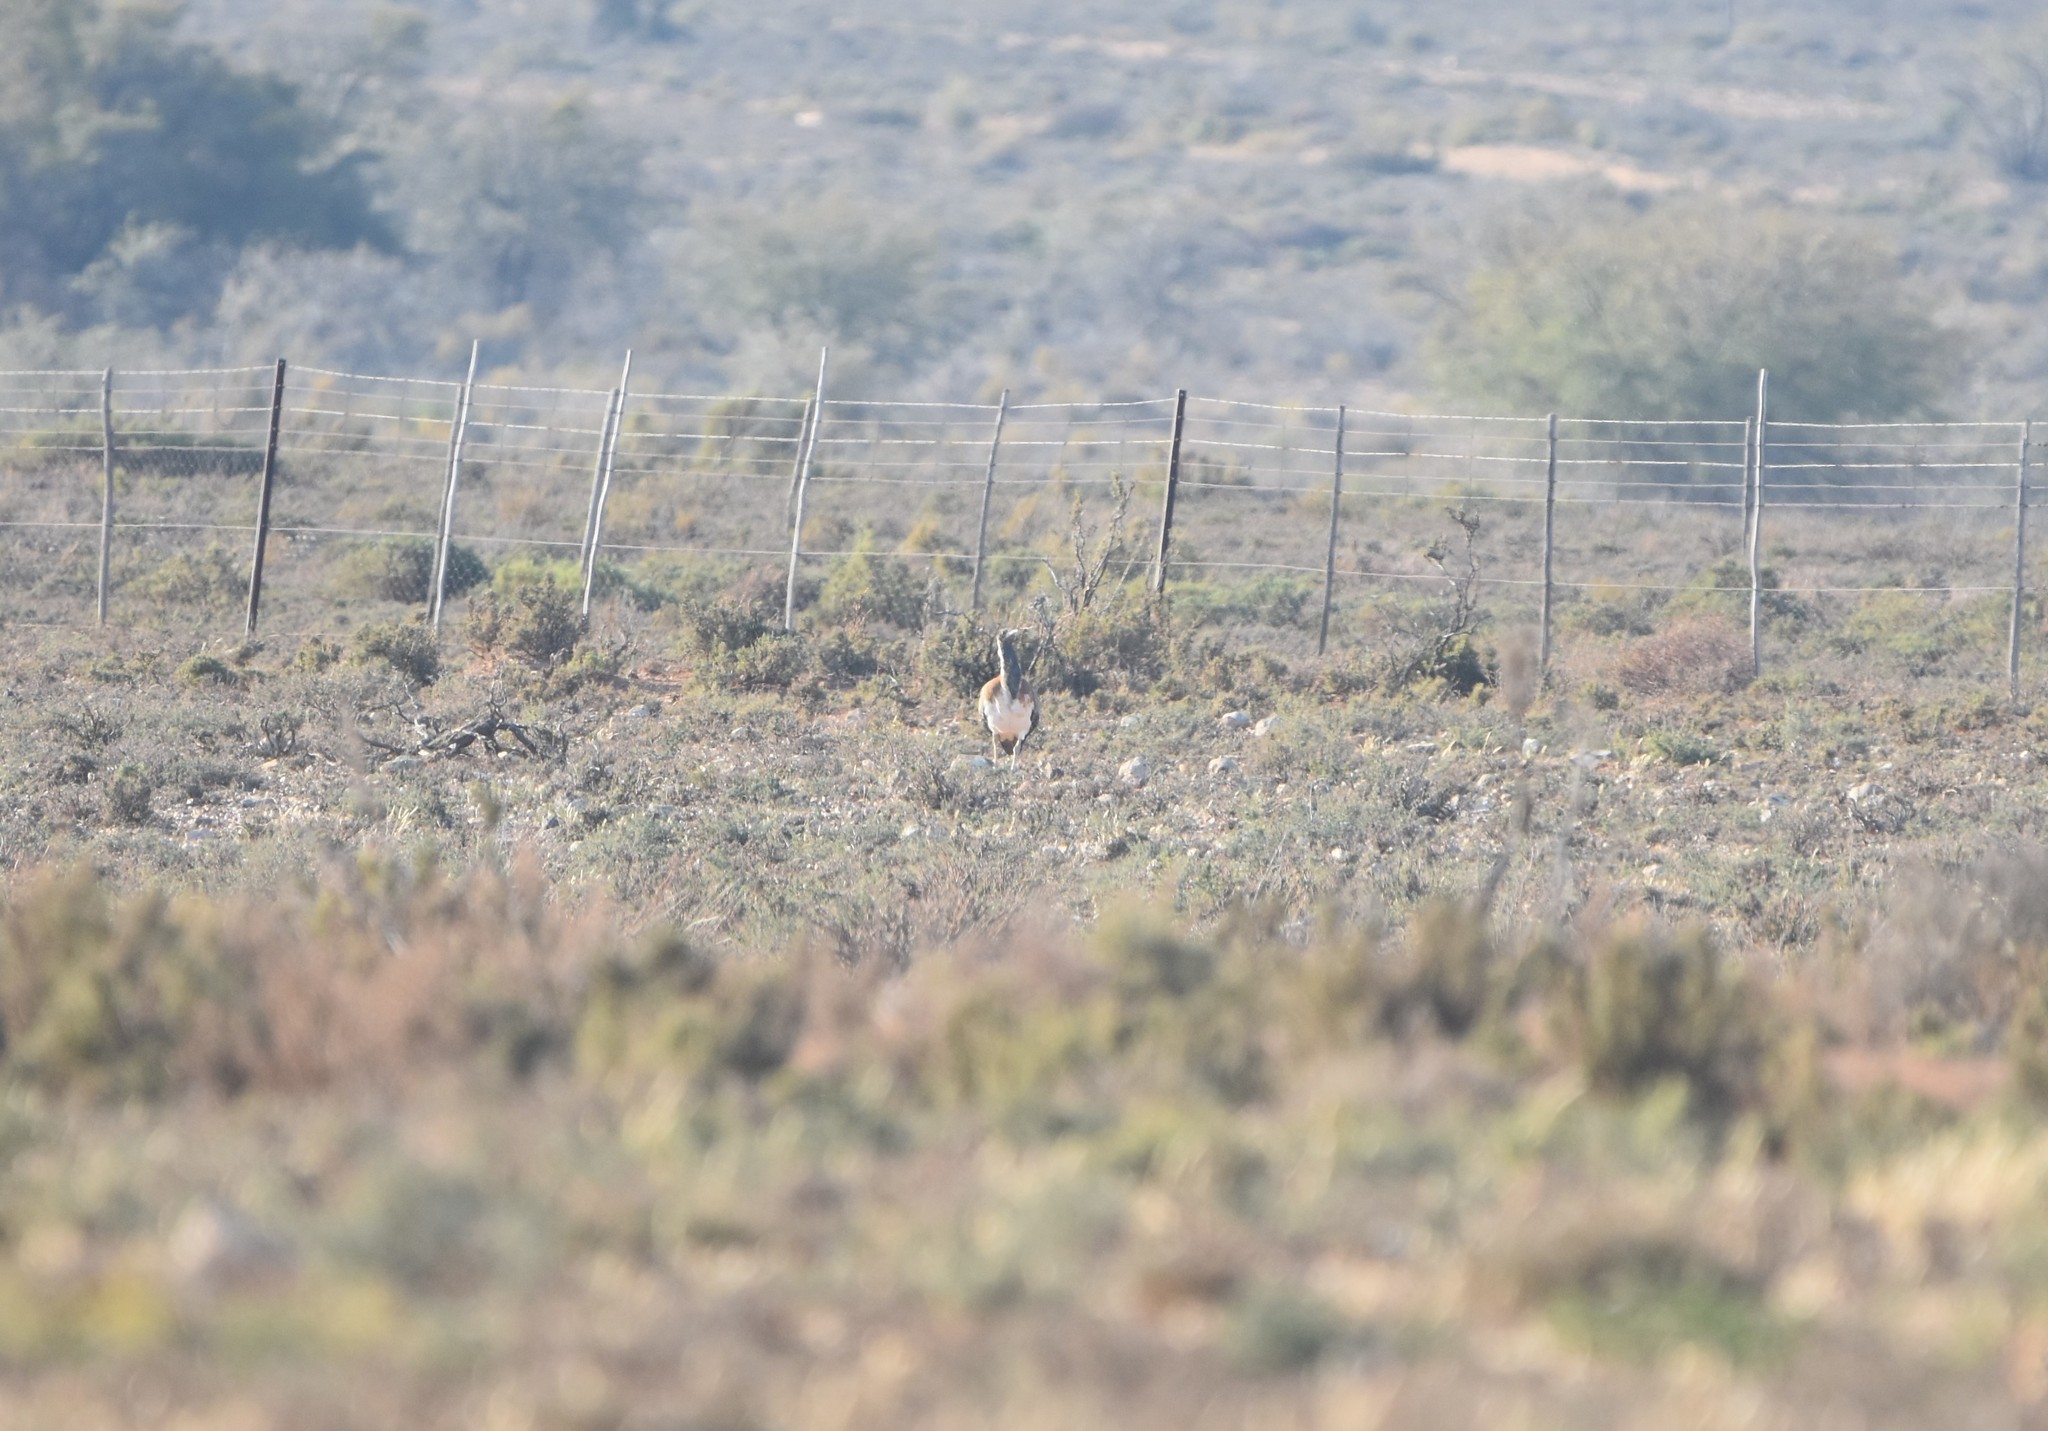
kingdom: Animalia
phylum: Chordata
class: Aves
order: Otidiformes
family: Otididae
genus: Neotis
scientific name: Neotis ludwigii
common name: Ludwig's bustard
